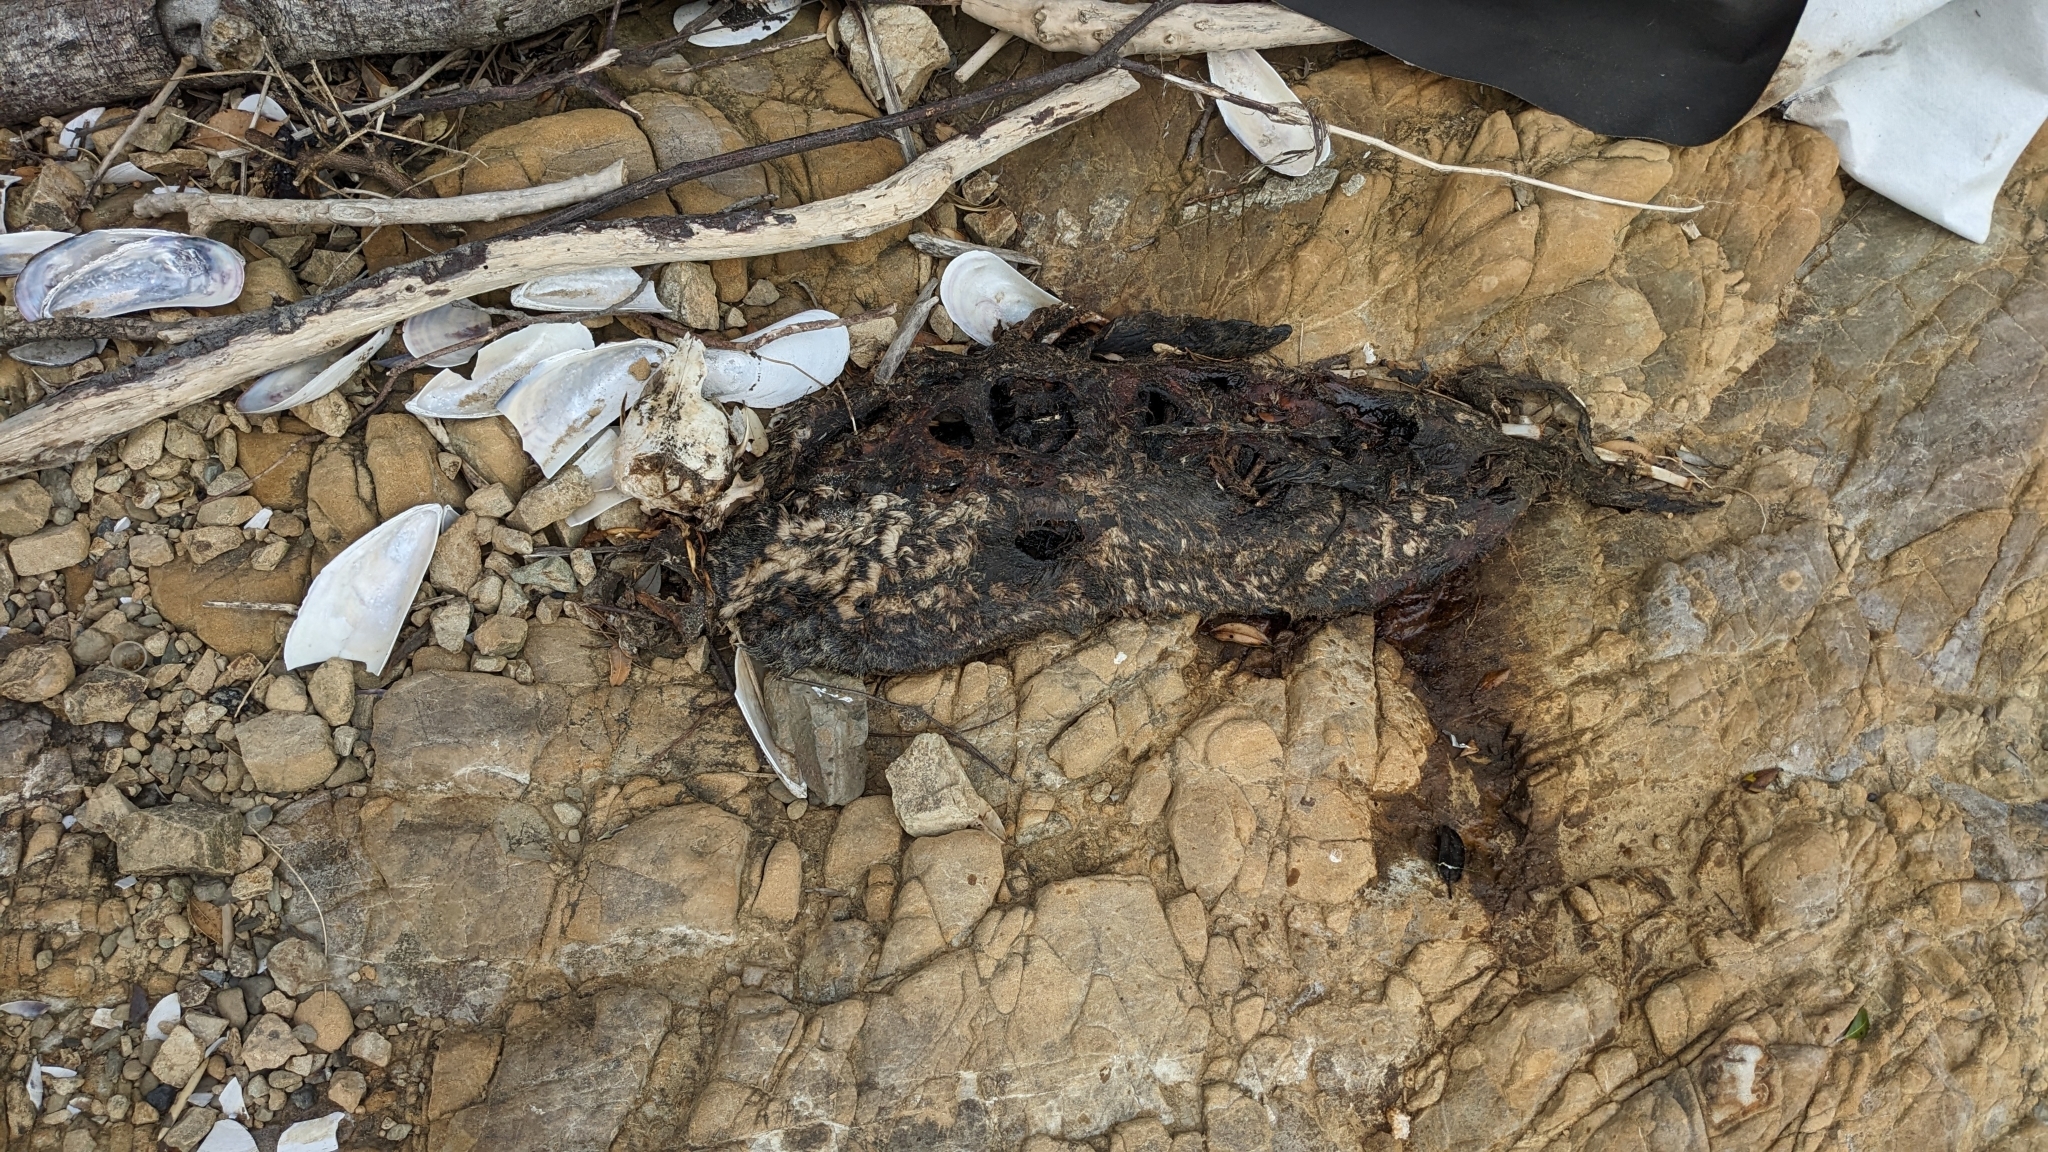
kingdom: Animalia
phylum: Chordata
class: Mammalia
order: Carnivora
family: Otariidae
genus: Arctocephalus
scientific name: Arctocephalus forsteri
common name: New zealand fur seal
